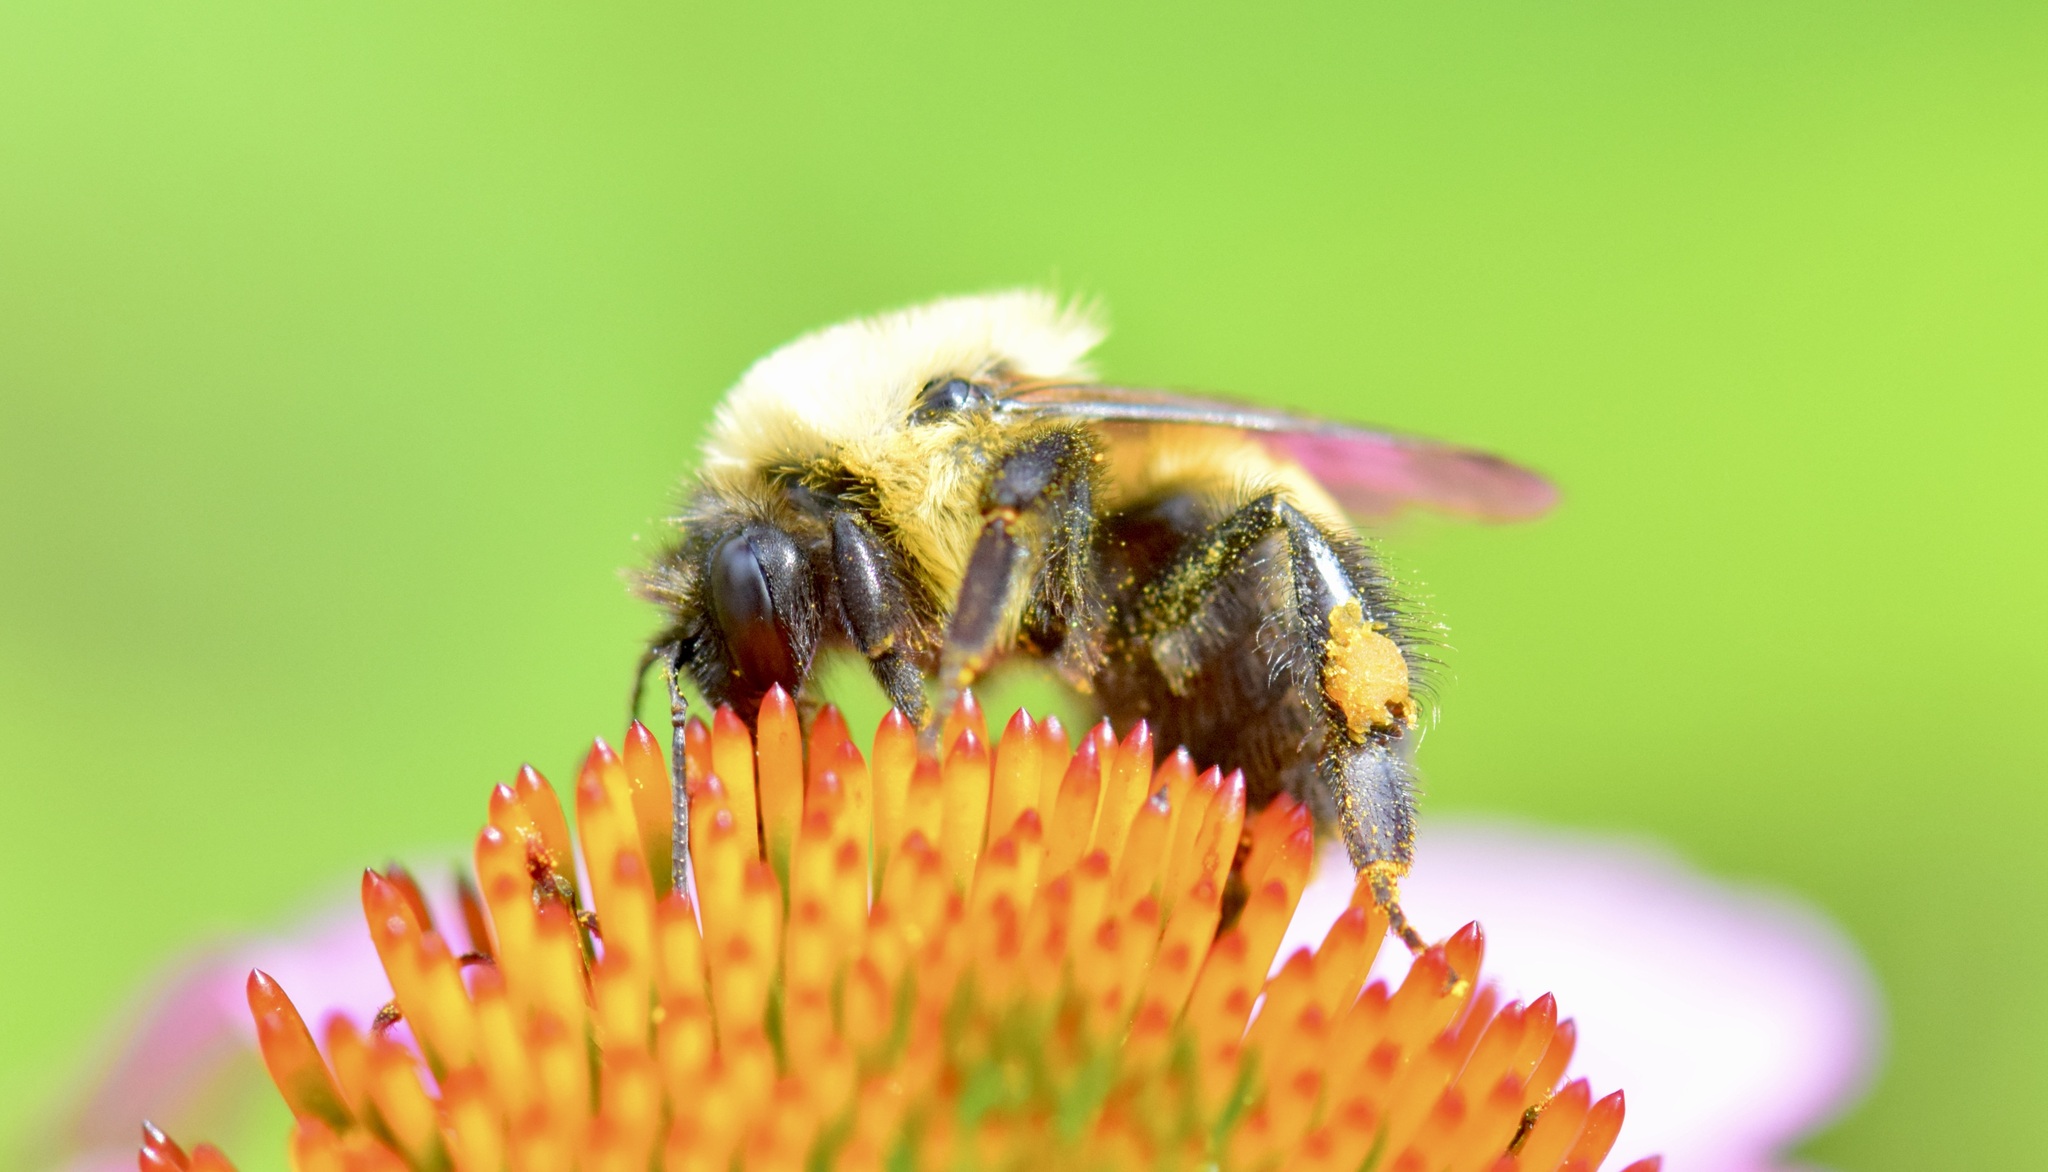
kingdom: Animalia
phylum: Arthropoda
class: Insecta
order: Hymenoptera
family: Apidae
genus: Bombus
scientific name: Bombus griseocollis
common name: Brown-belted bumble bee
